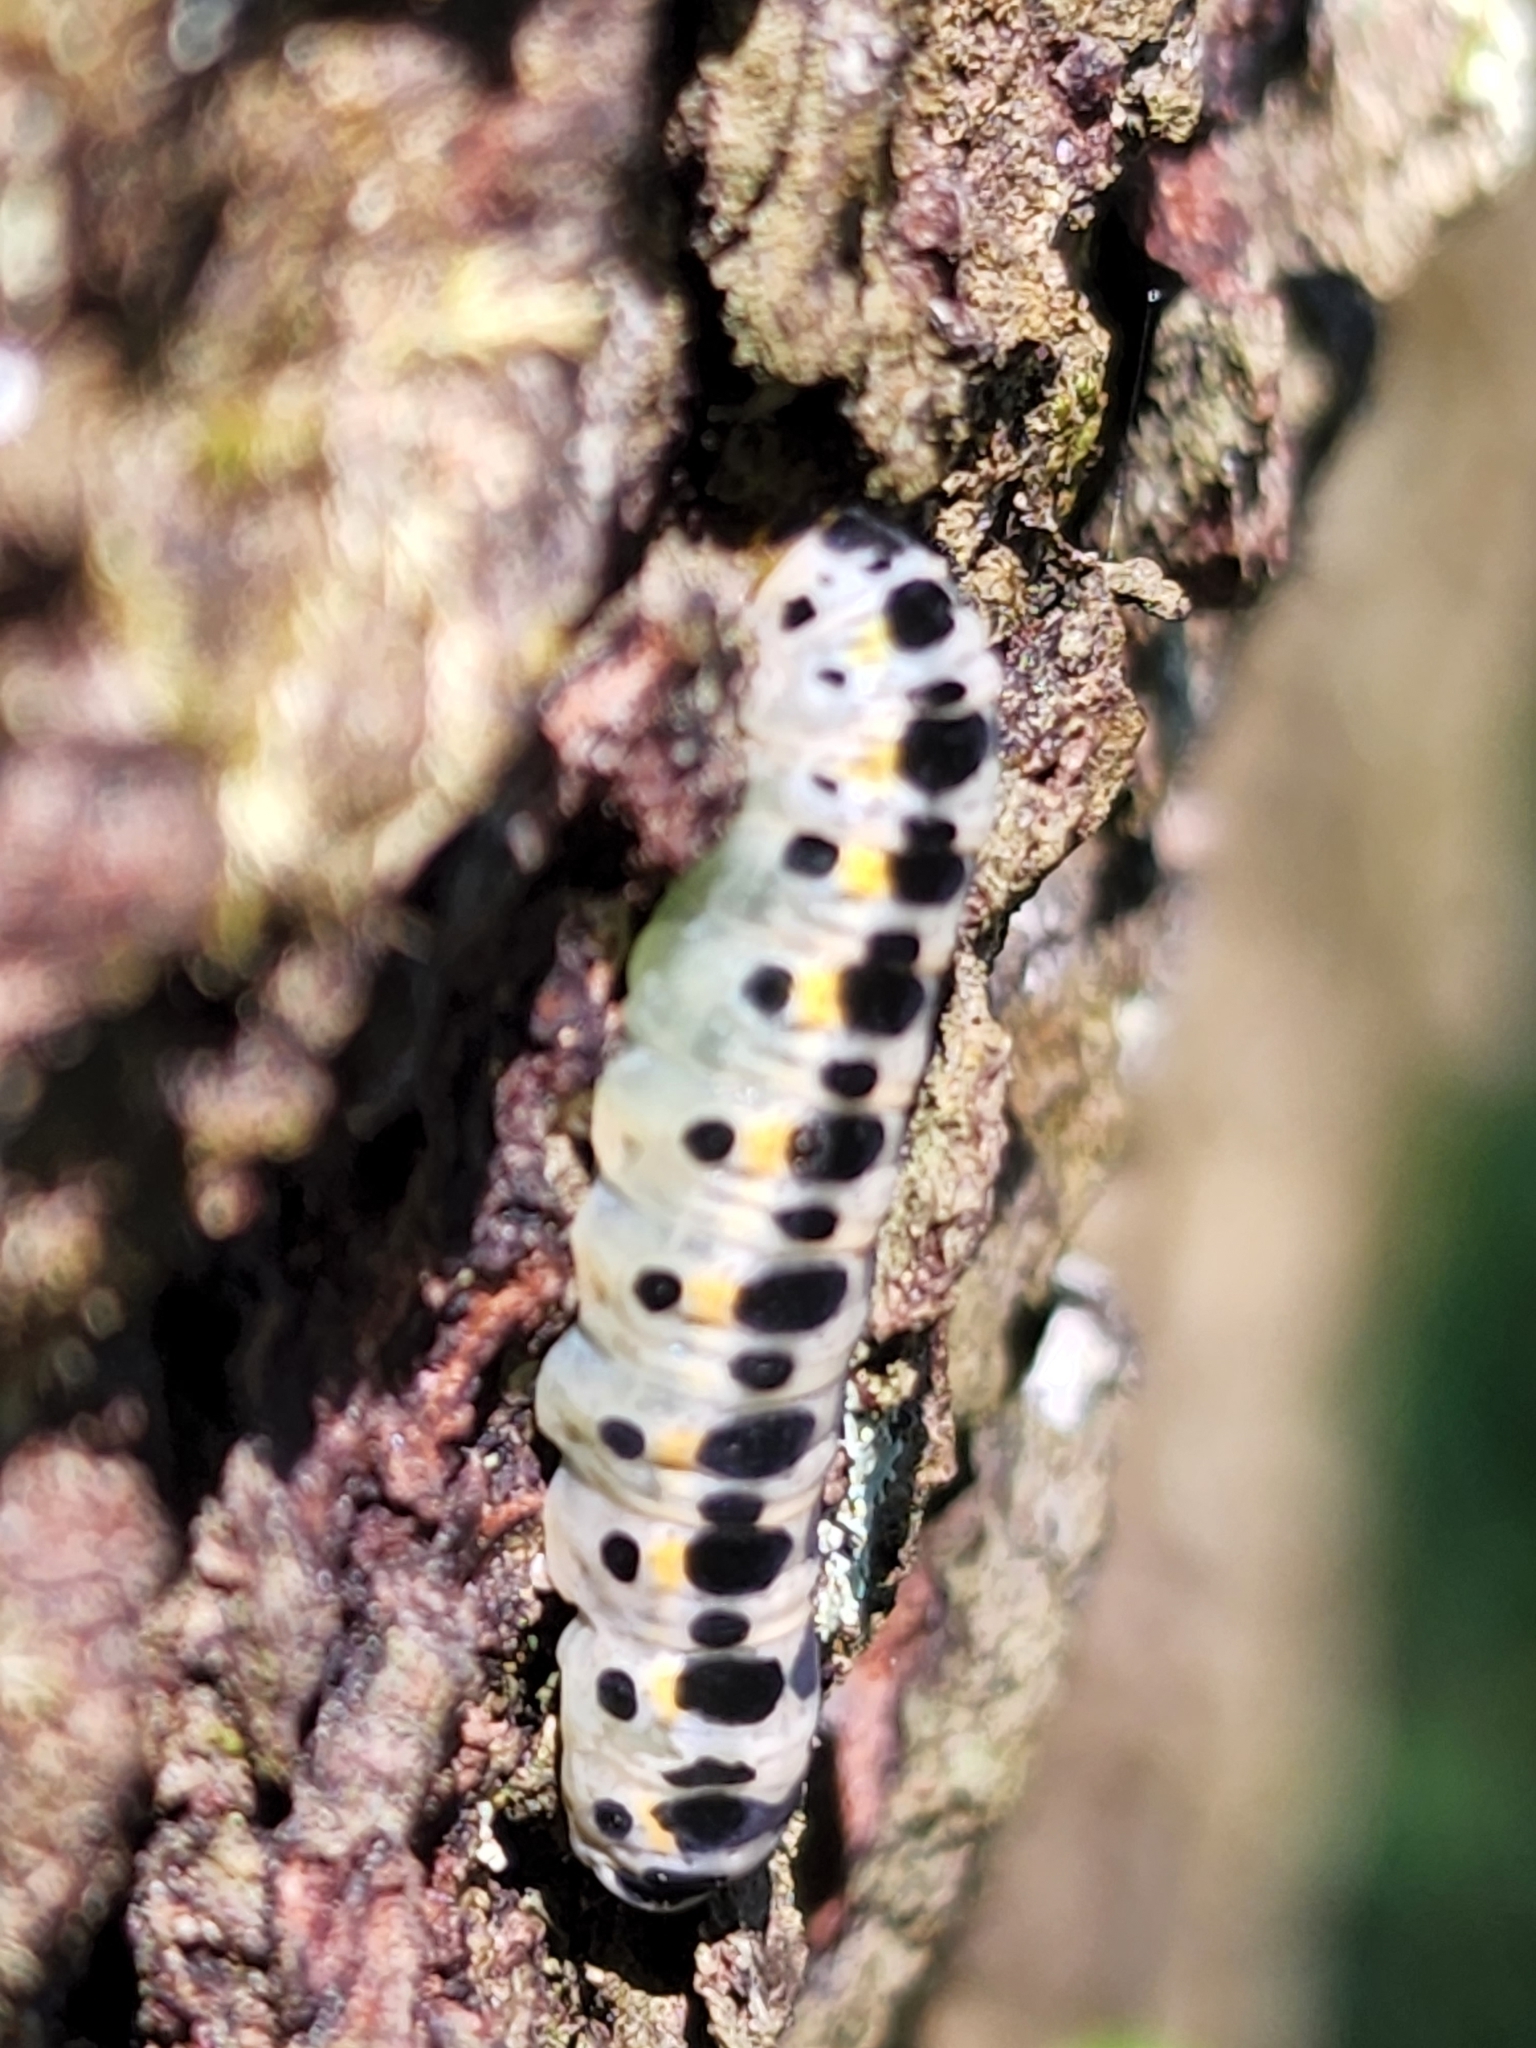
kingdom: Animalia
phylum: Arthropoda
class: Insecta
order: Lepidoptera
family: Euteliidae
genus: Marathyssa
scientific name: Marathyssa basalis
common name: Light marathyssa moth
